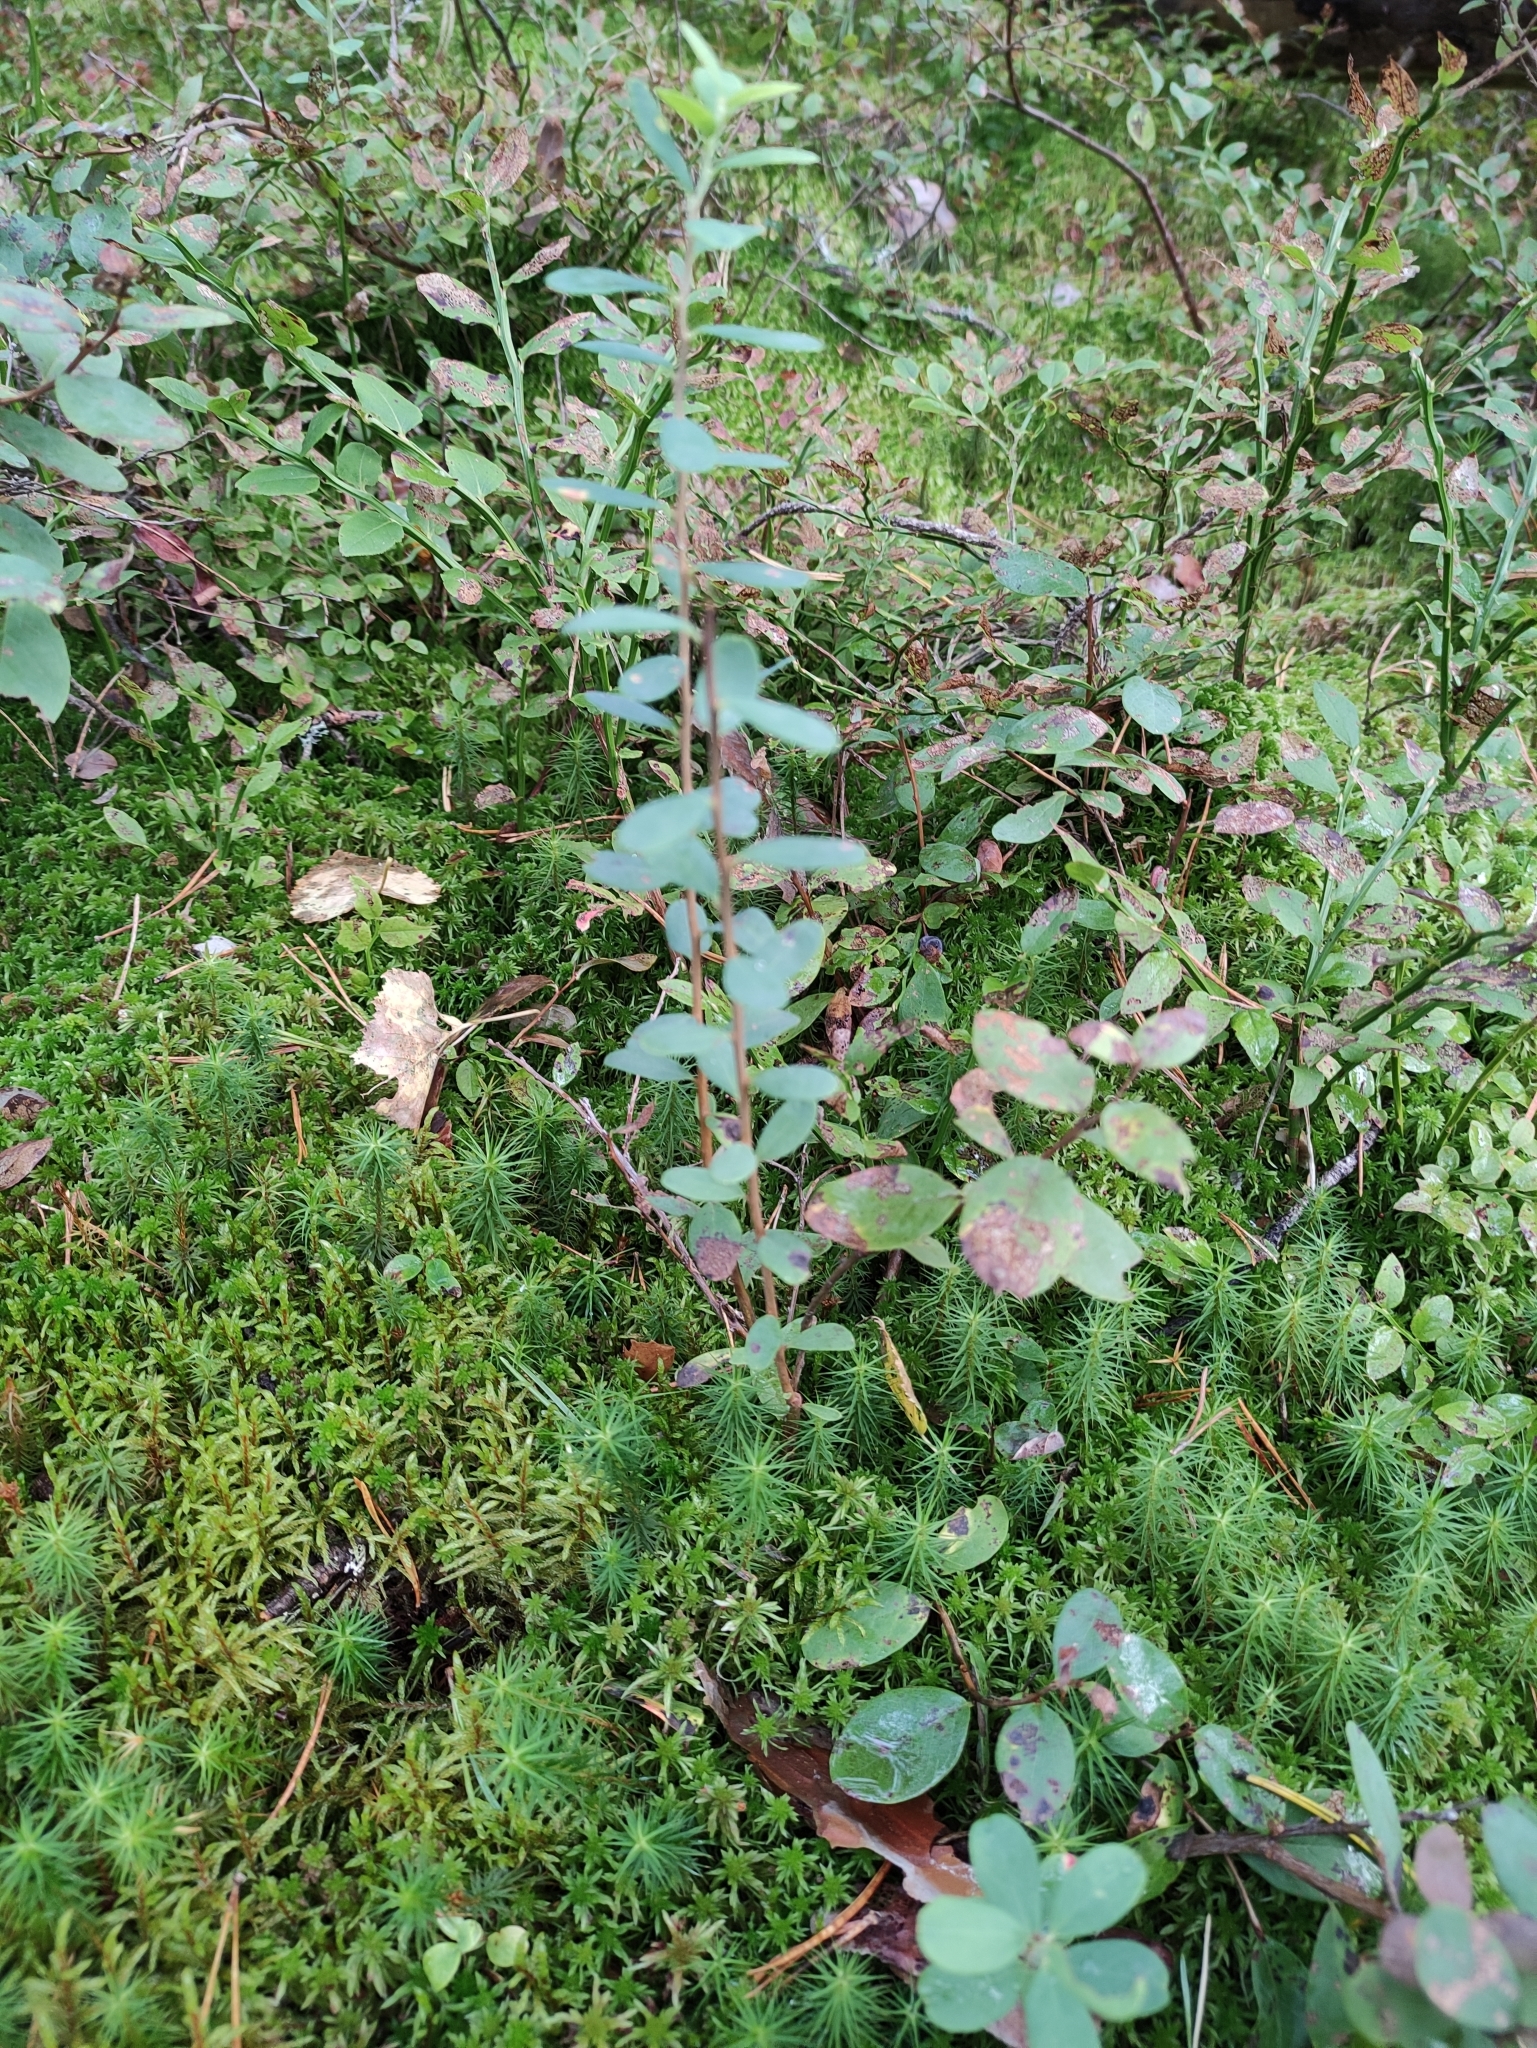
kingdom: Plantae
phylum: Tracheophyta
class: Magnoliopsida
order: Ericales
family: Ericaceae
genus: Vaccinium
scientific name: Vaccinium uliginosum
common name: Bog bilberry
